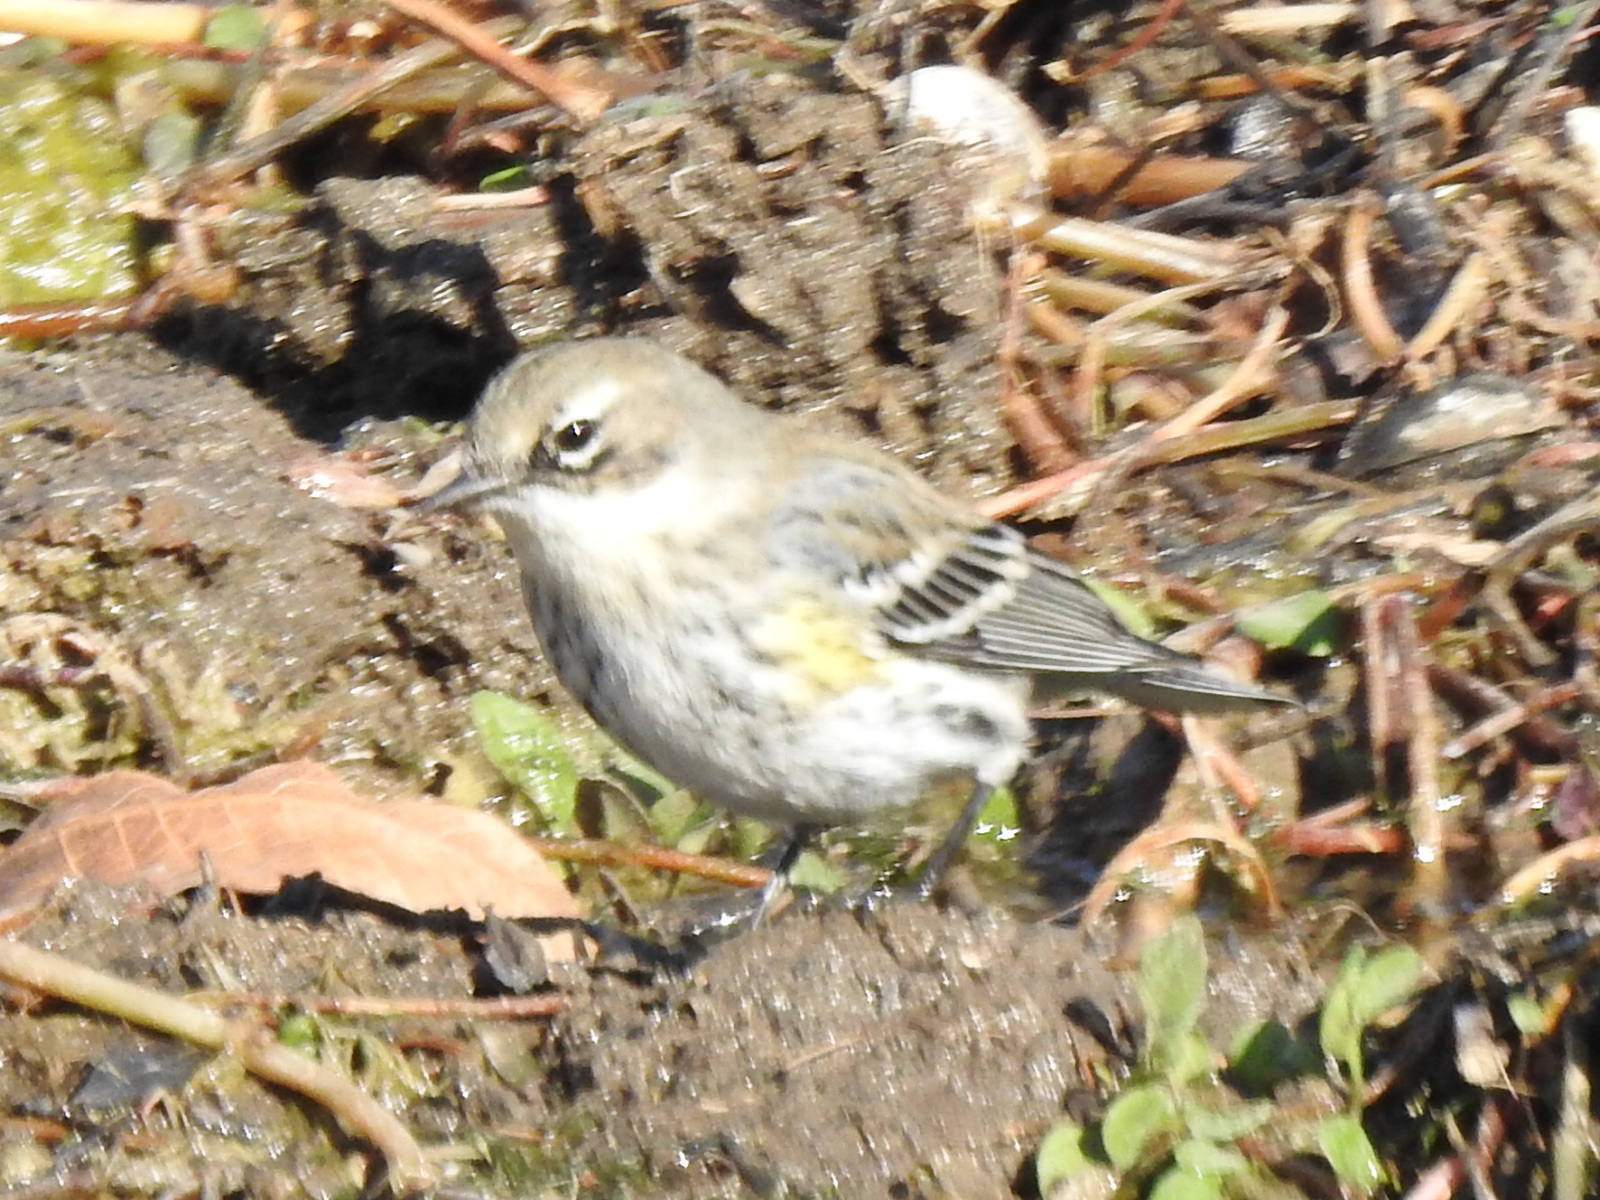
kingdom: Animalia
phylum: Chordata
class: Aves
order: Passeriformes
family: Parulidae
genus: Setophaga
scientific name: Setophaga coronata
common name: Myrtle warbler
